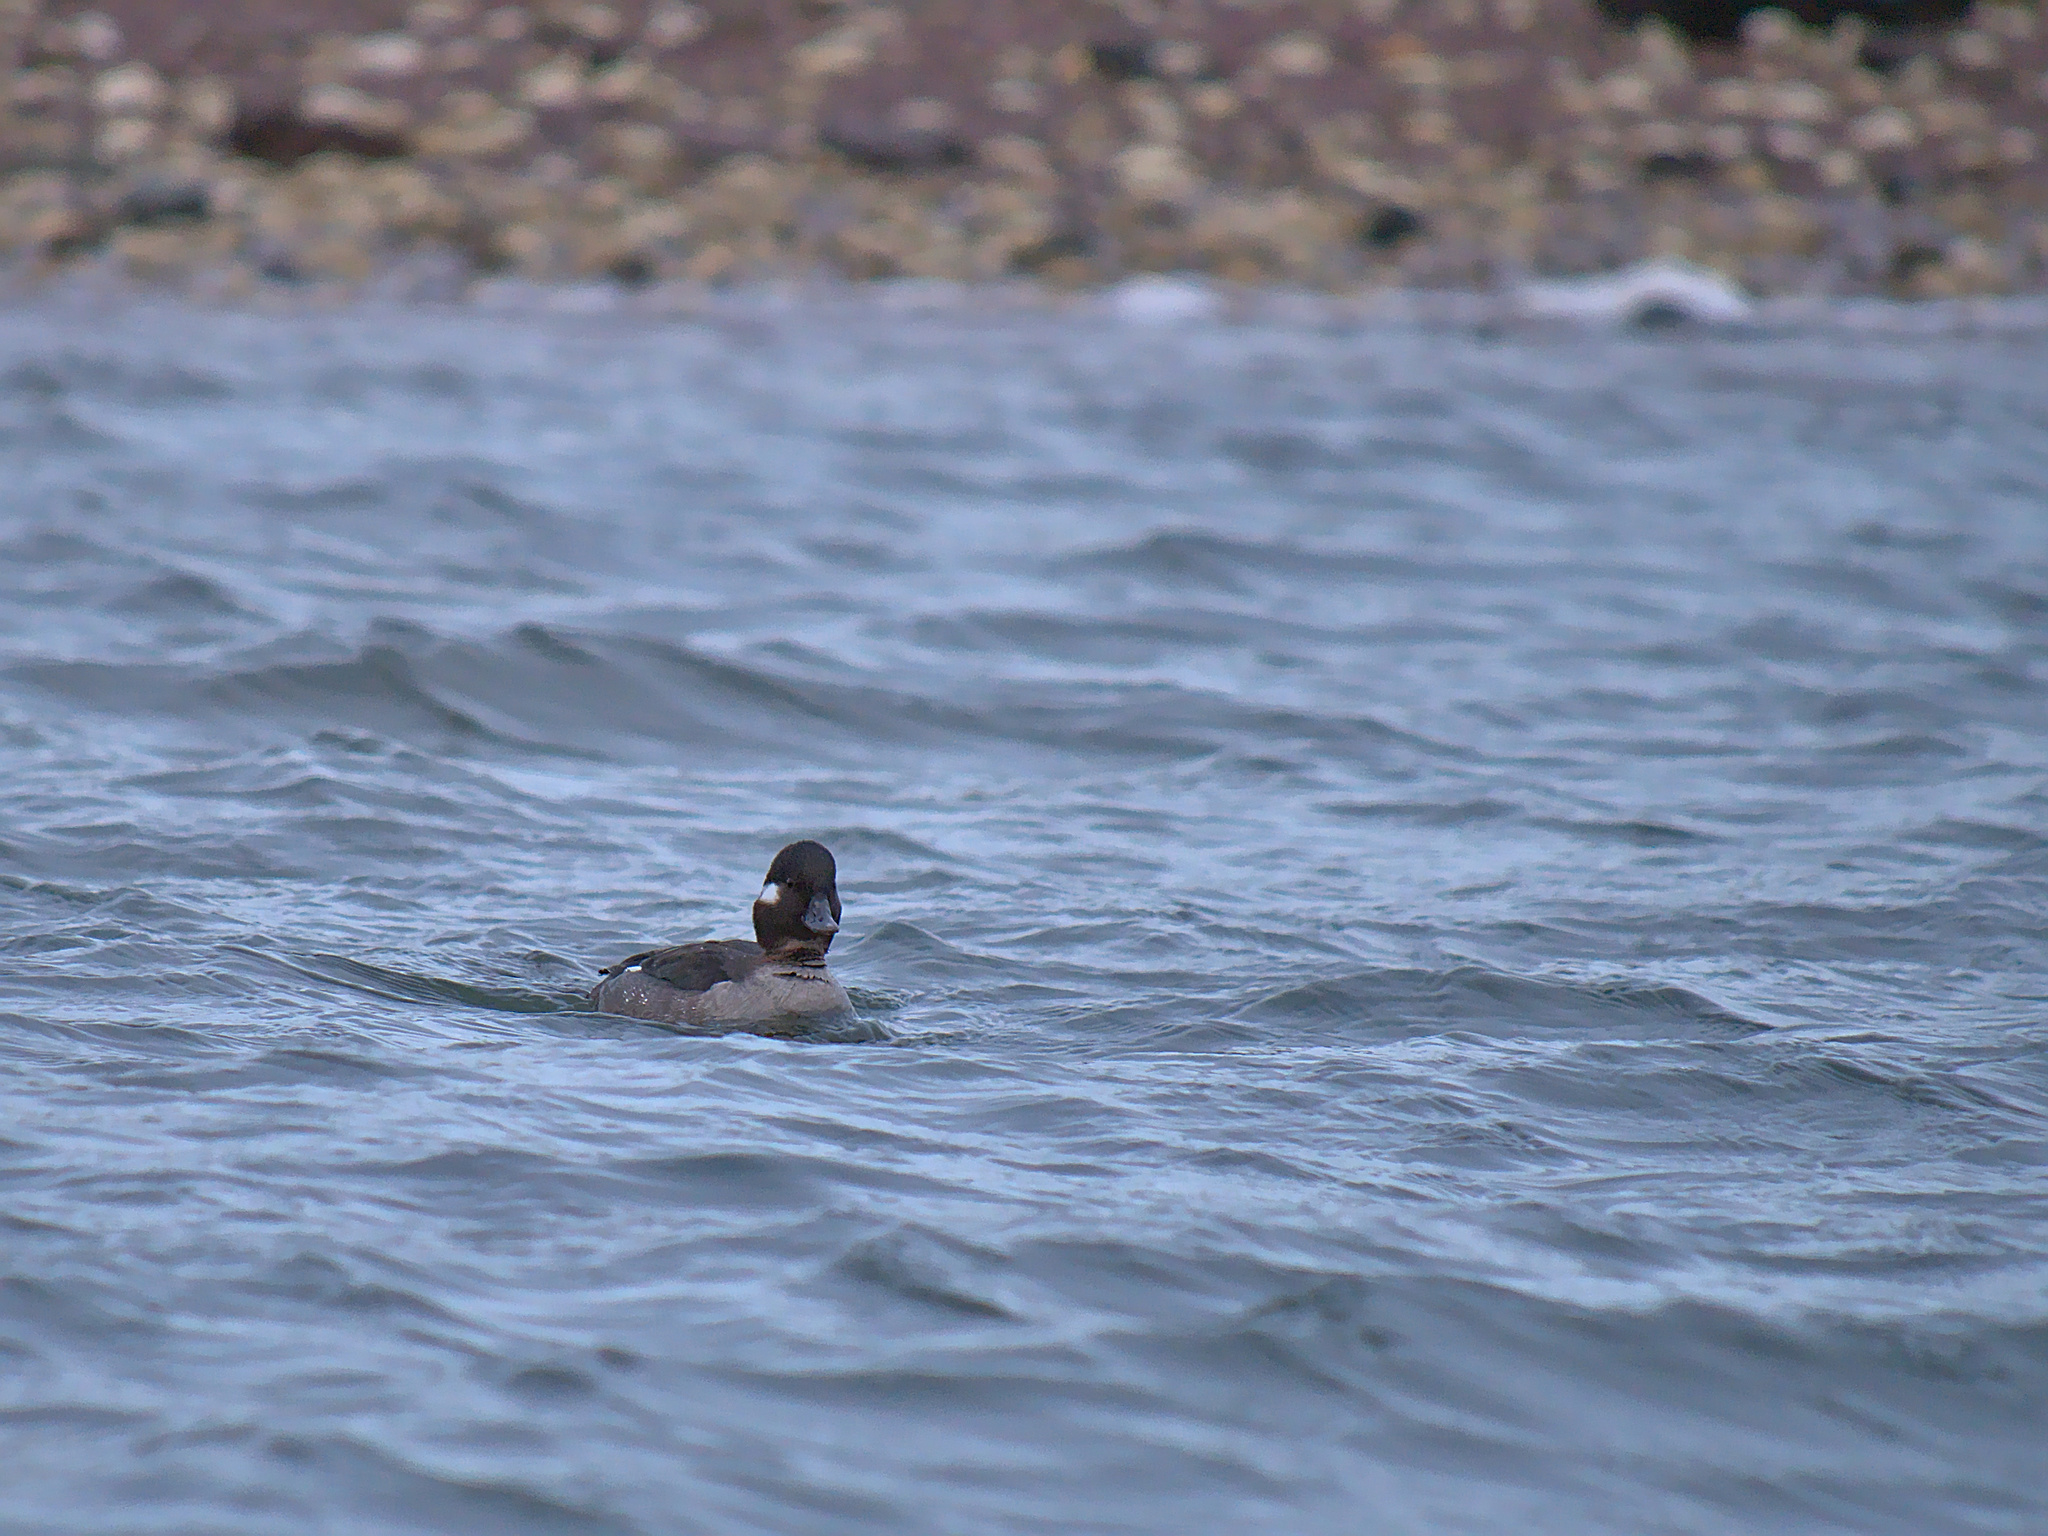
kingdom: Animalia
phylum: Chordata
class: Aves
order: Anseriformes
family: Anatidae
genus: Bucephala
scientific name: Bucephala albeola
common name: Bufflehead
